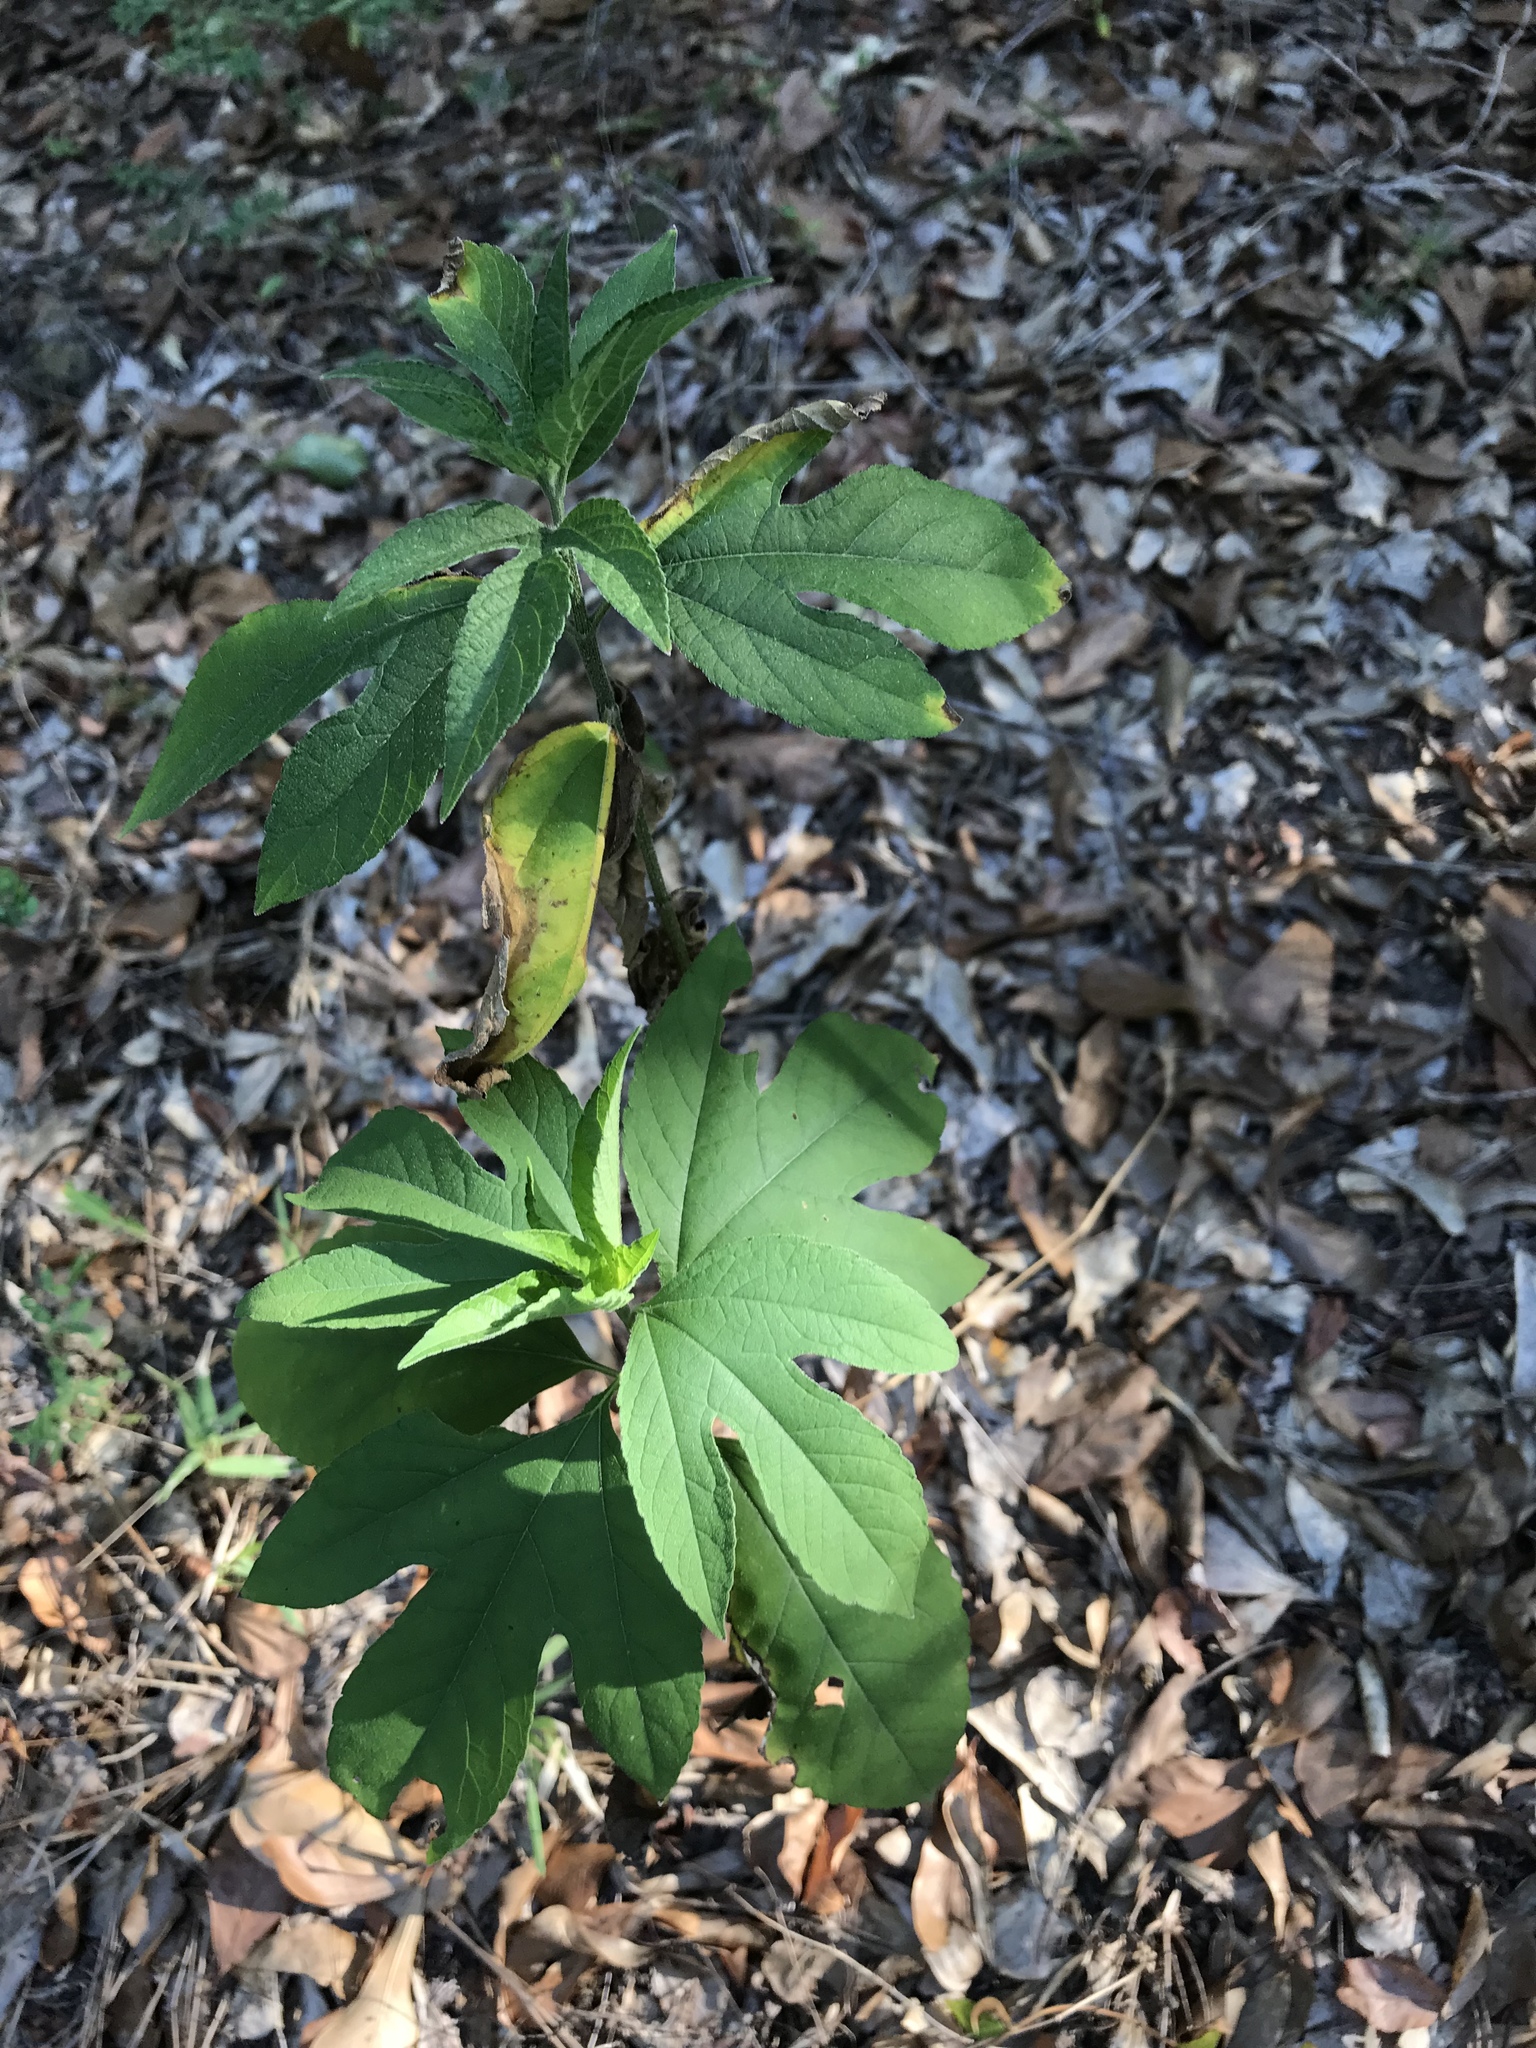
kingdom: Plantae
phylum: Tracheophyta
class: Magnoliopsida
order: Asterales
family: Asteraceae
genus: Ambrosia
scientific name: Ambrosia trifida
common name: Giant ragweed
